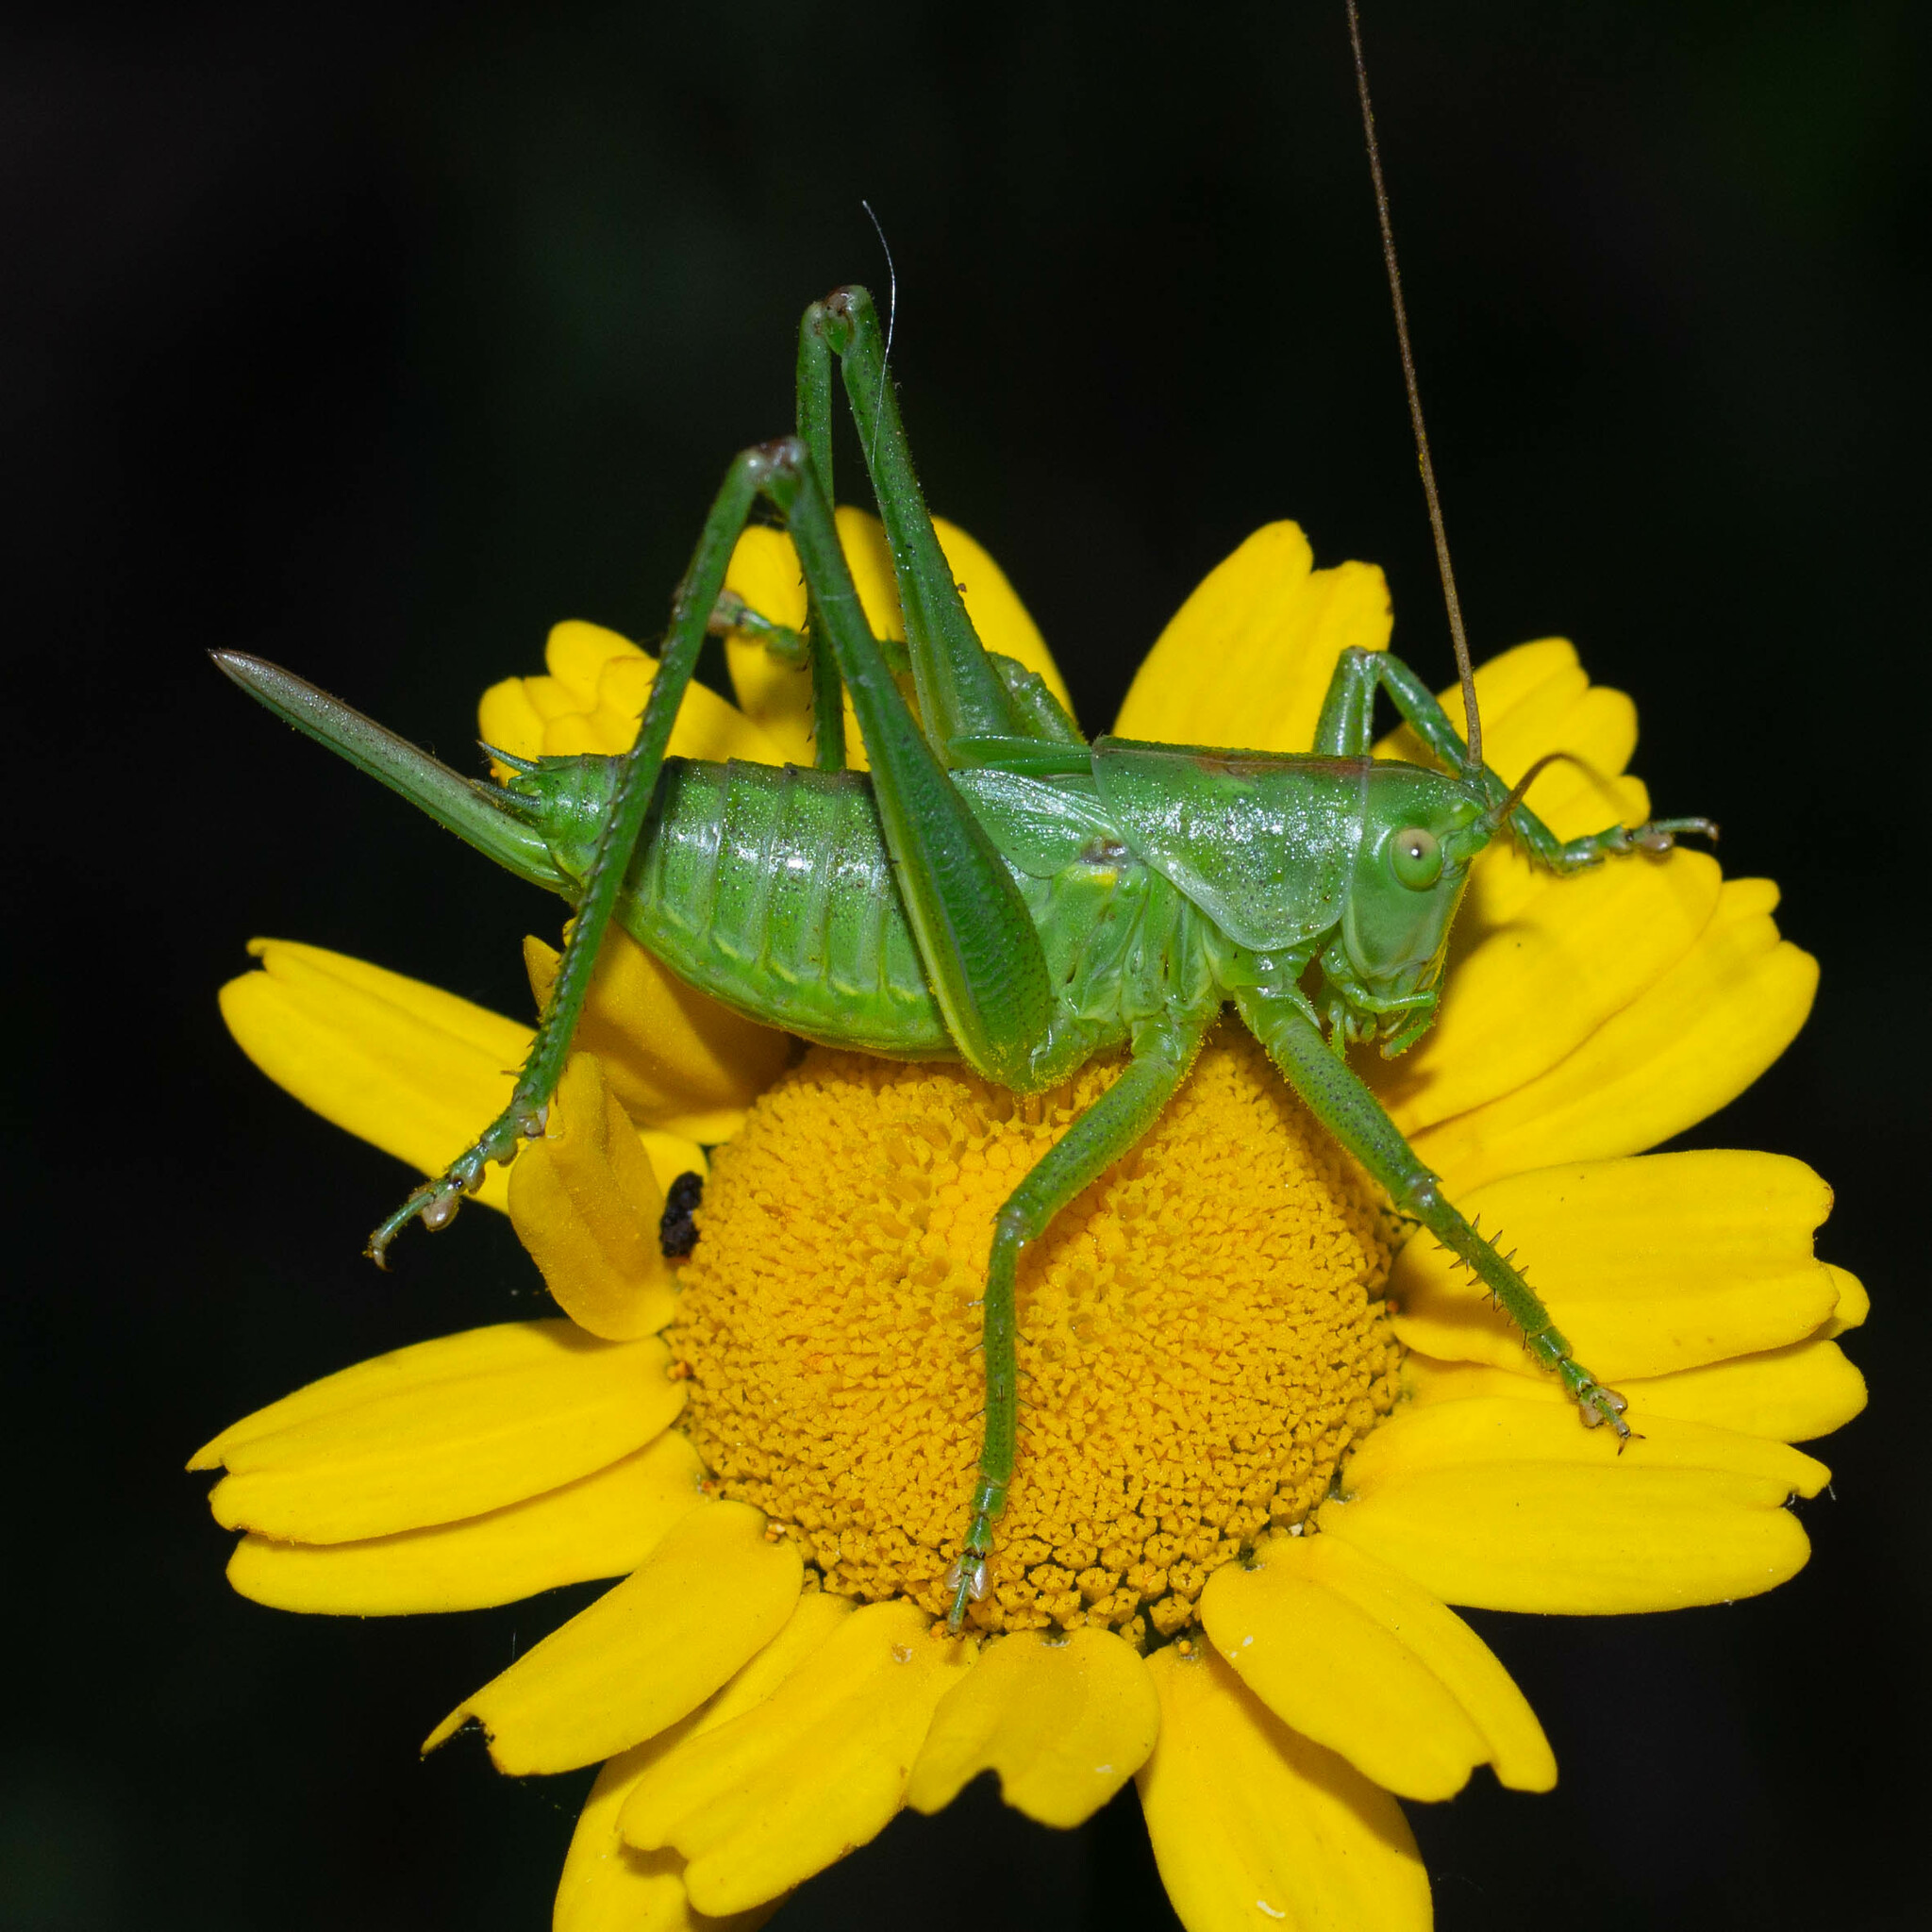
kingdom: Animalia
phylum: Arthropoda
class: Insecta
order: Orthoptera
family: Tettigoniidae
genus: Tettigonia
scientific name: Tettigonia viridissima
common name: Great green bush-cricket
